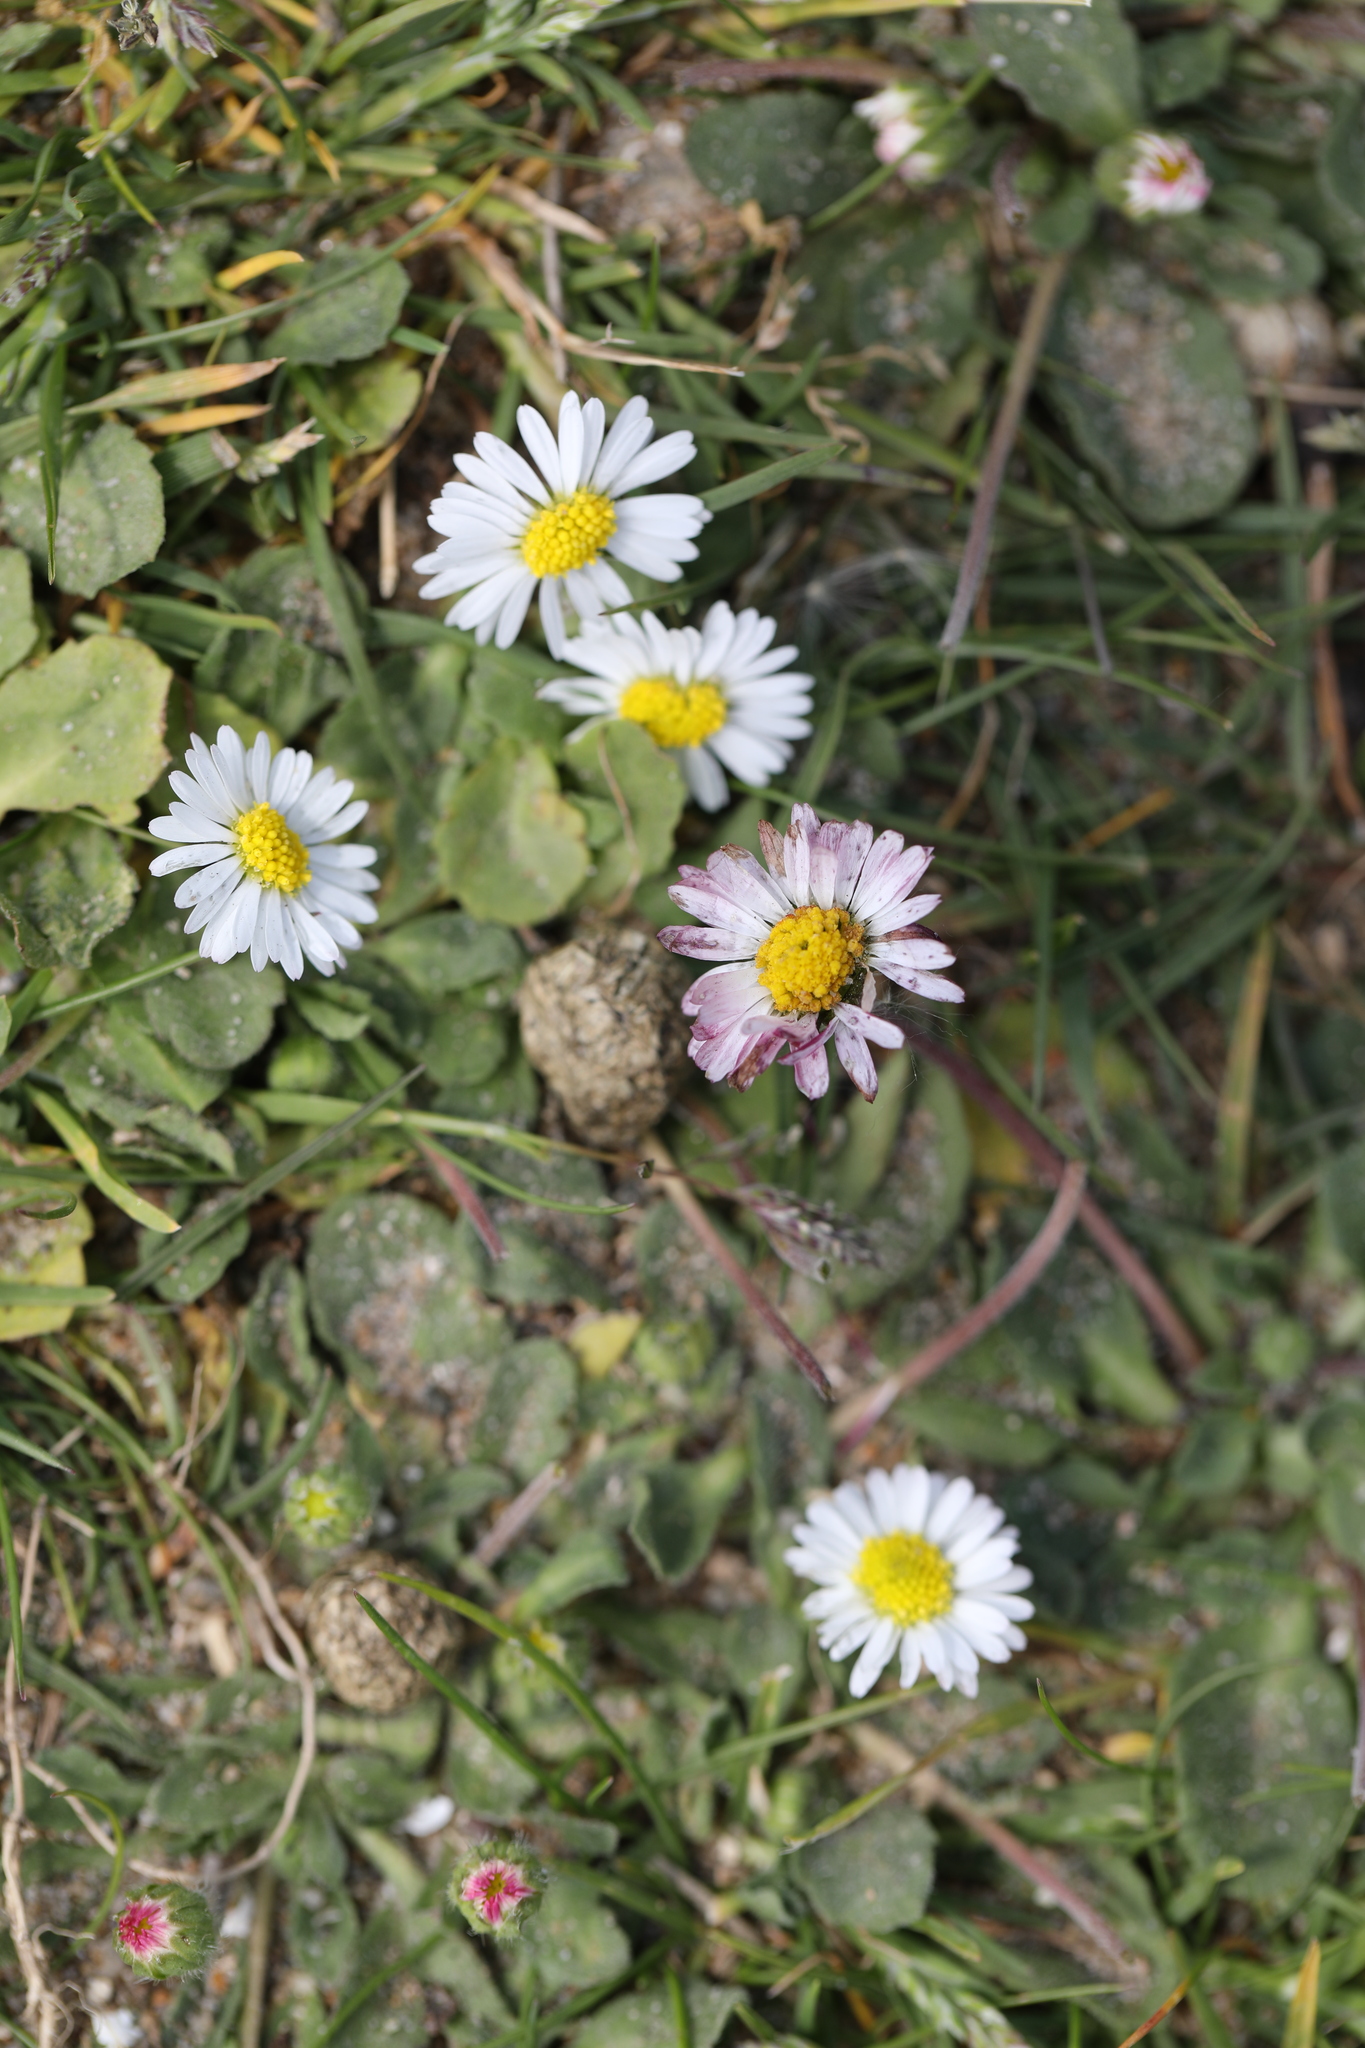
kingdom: Plantae
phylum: Tracheophyta
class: Magnoliopsida
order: Asterales
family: Asteraceae
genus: Bellis
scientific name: Bellis perennis
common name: Lawndaisy
